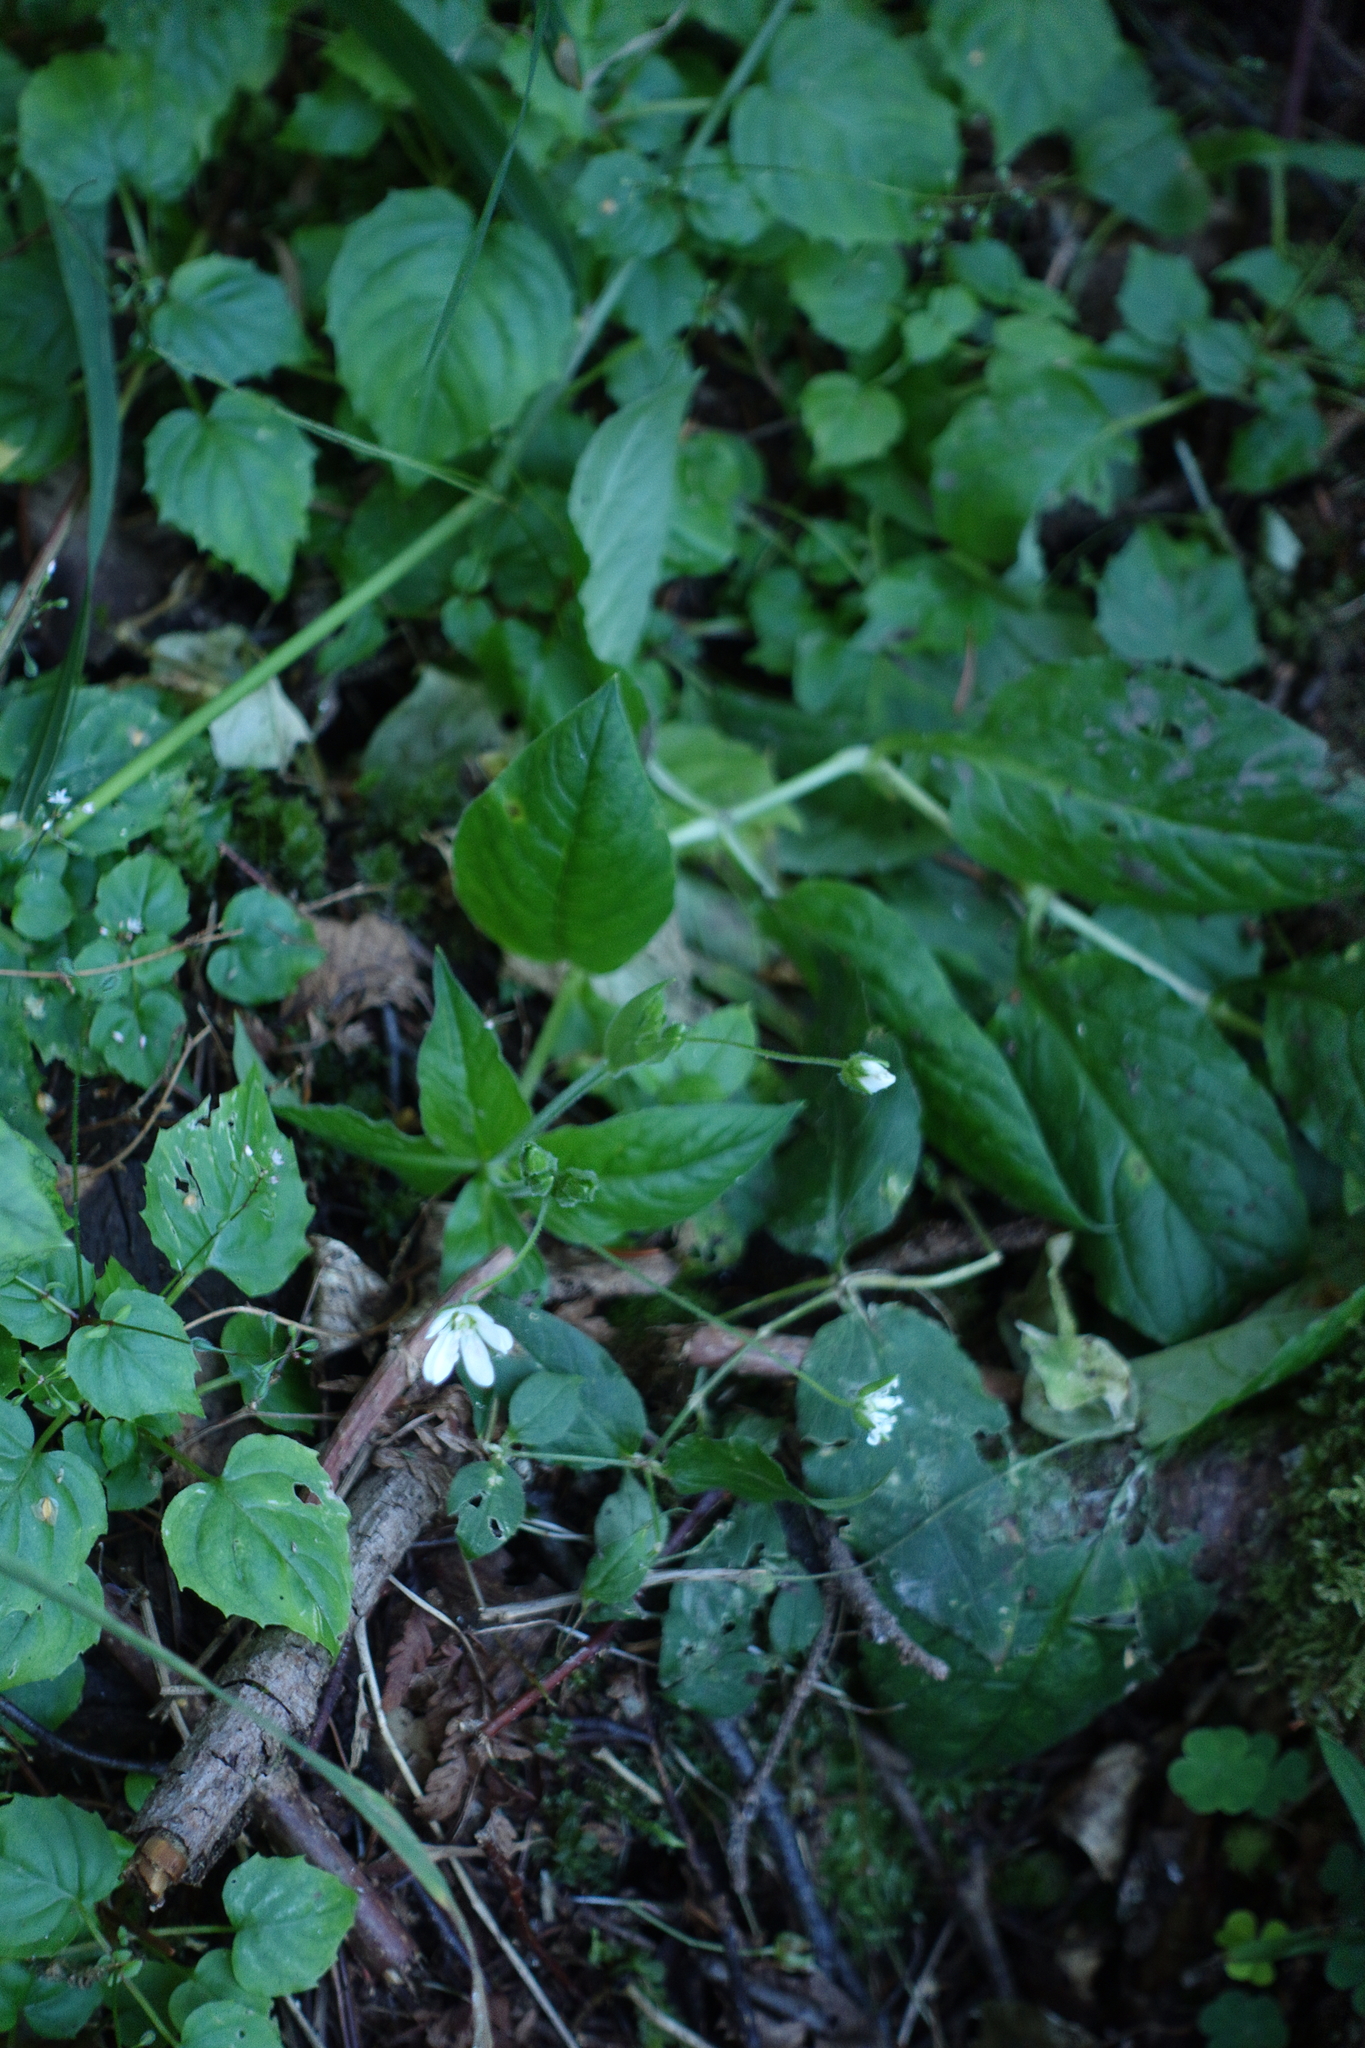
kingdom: Plantae
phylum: Tracheophyta
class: Magnoliopsida
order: Caryophyllales
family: Caryophyllaceae
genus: Stellaria
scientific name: Stellaria bungeana
